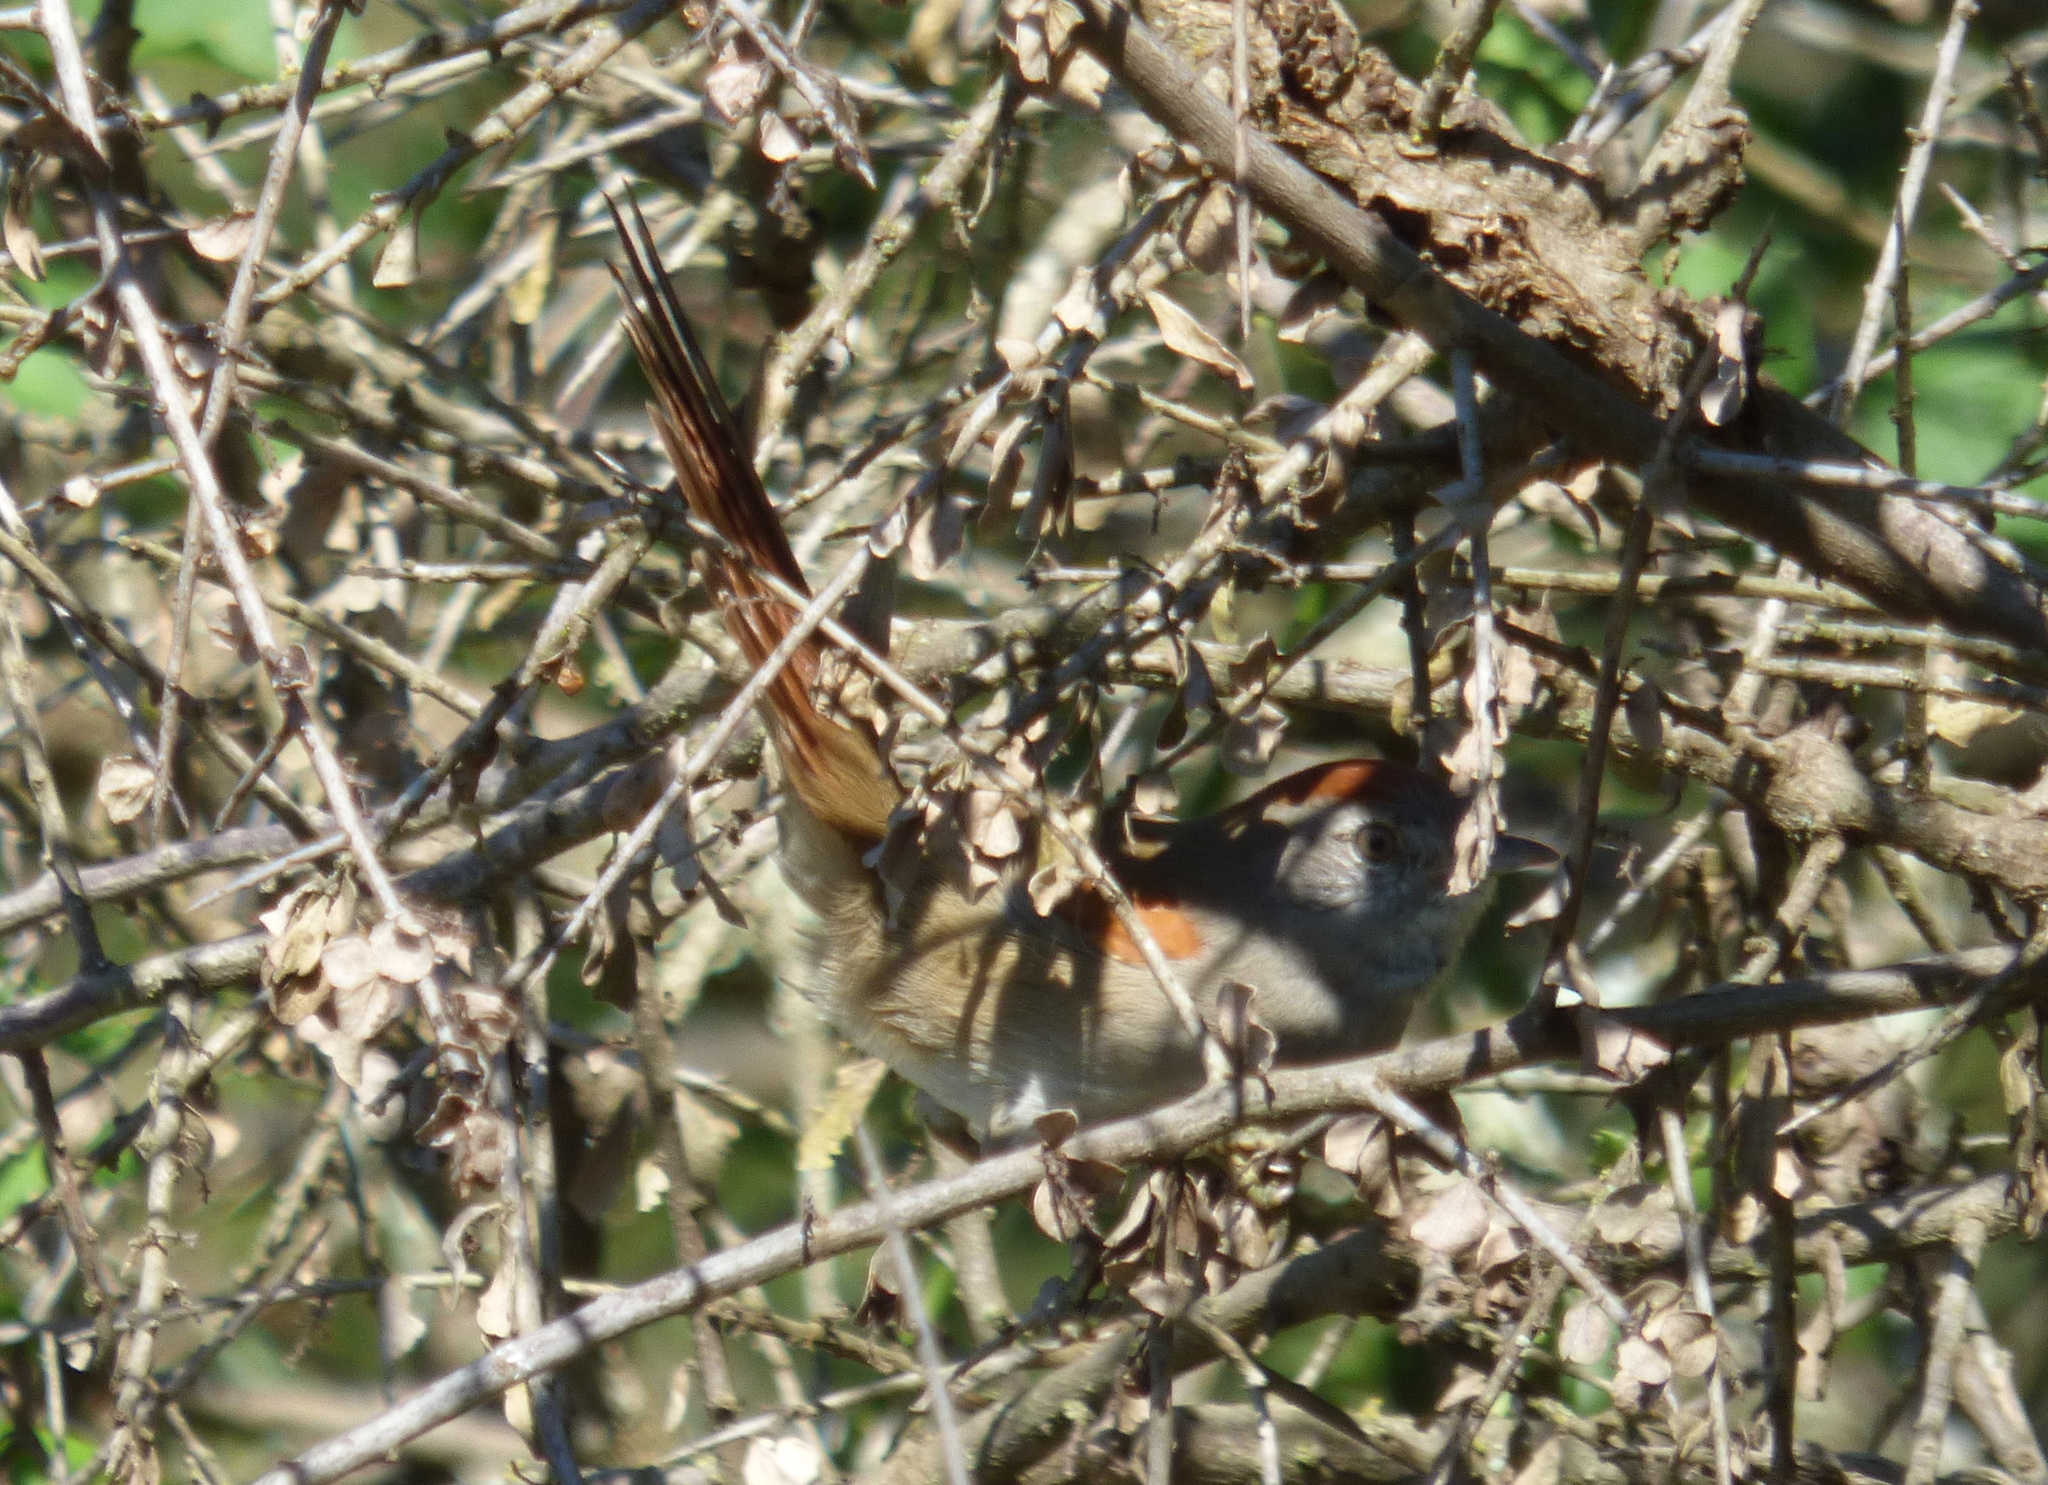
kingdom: Animalia
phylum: Chordata
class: Aves
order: Passeriformes
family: Furnariidae
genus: Synallaxis
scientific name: Synallaxis frontalis
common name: Sooty-fronted spinetail
